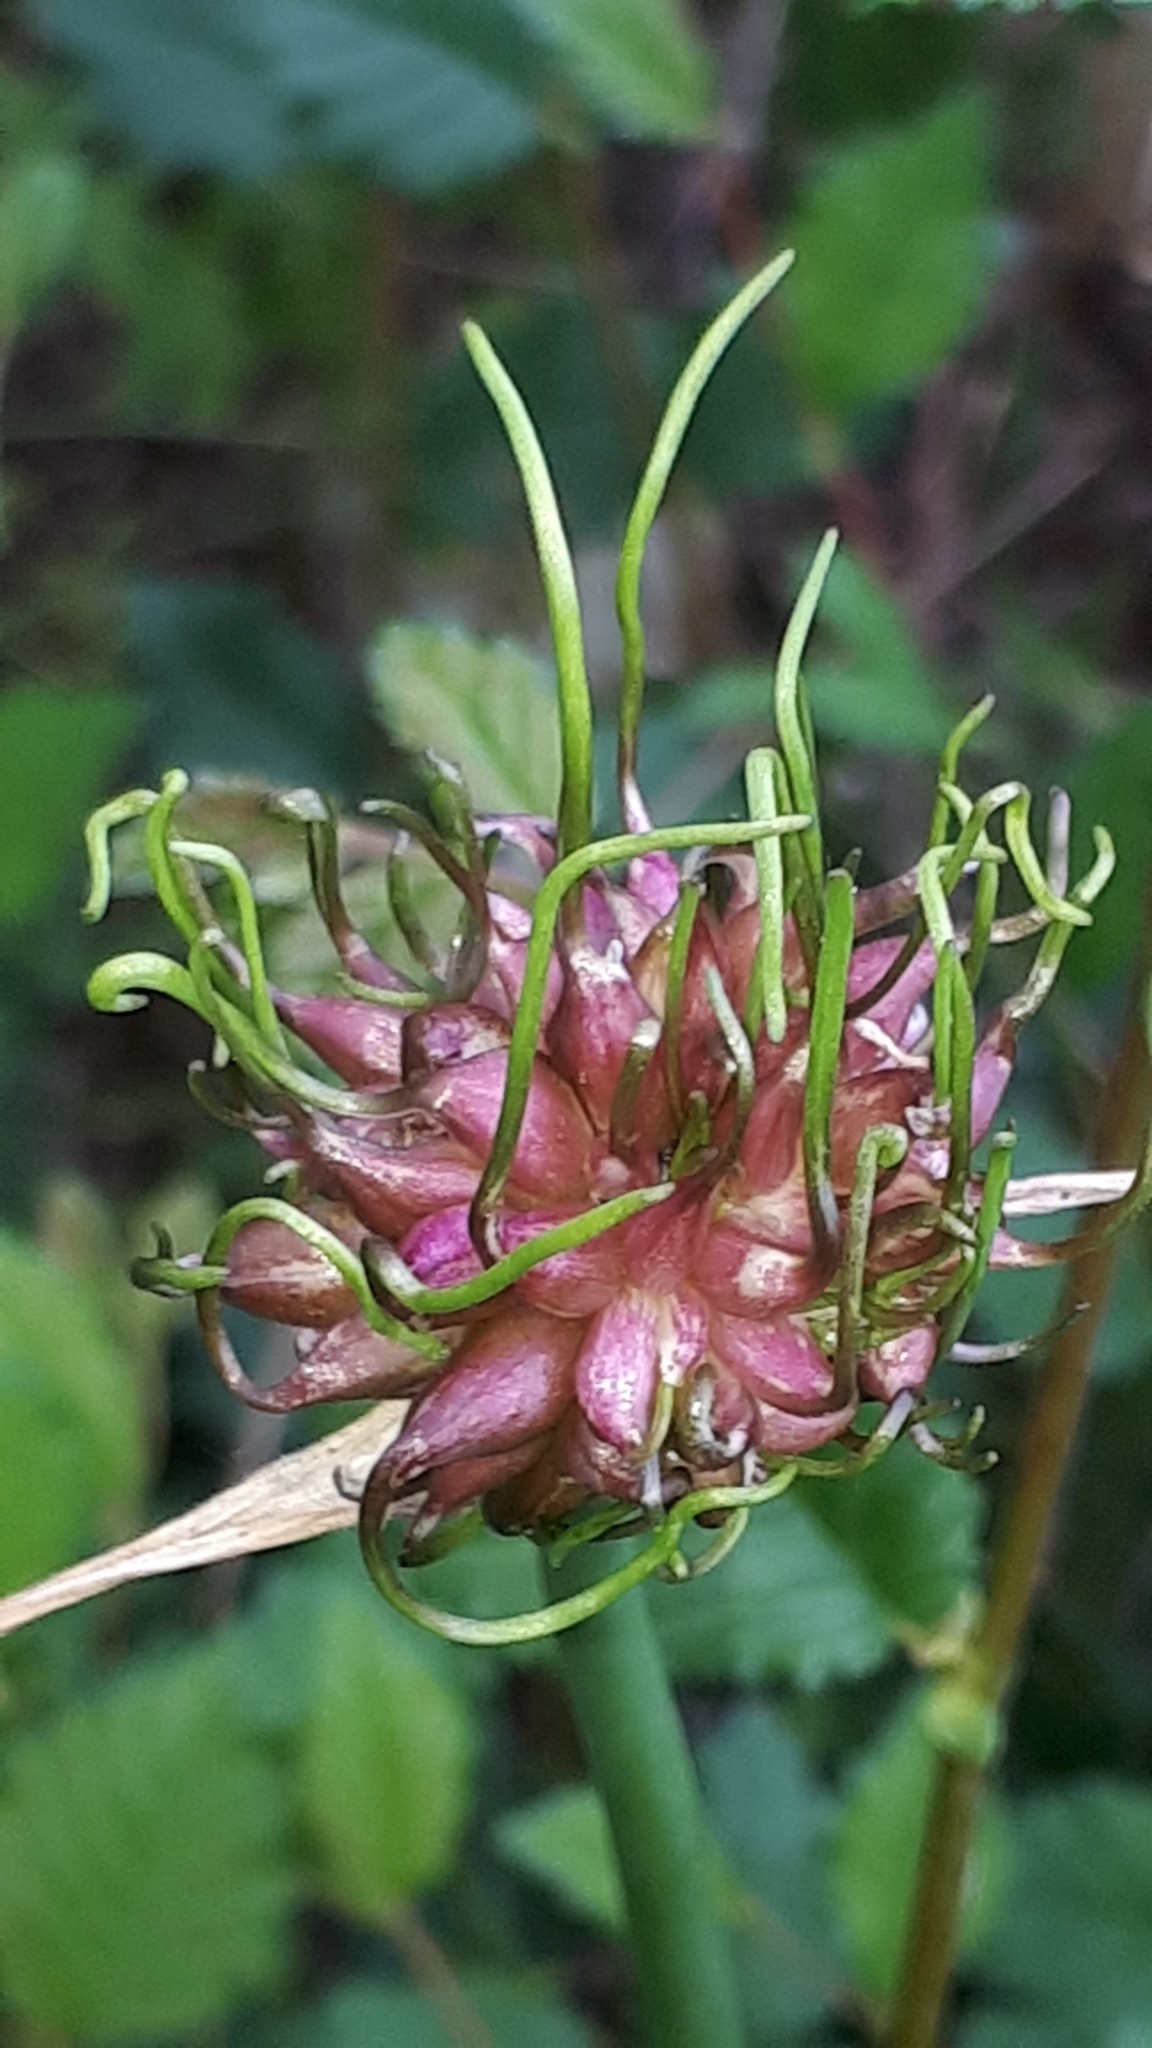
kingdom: Plantae
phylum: Tracheophyta
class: Liliopsida
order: Asparagales
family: Amaryllidaceae
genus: Allium
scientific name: Allium vineale
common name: Crow garlic
